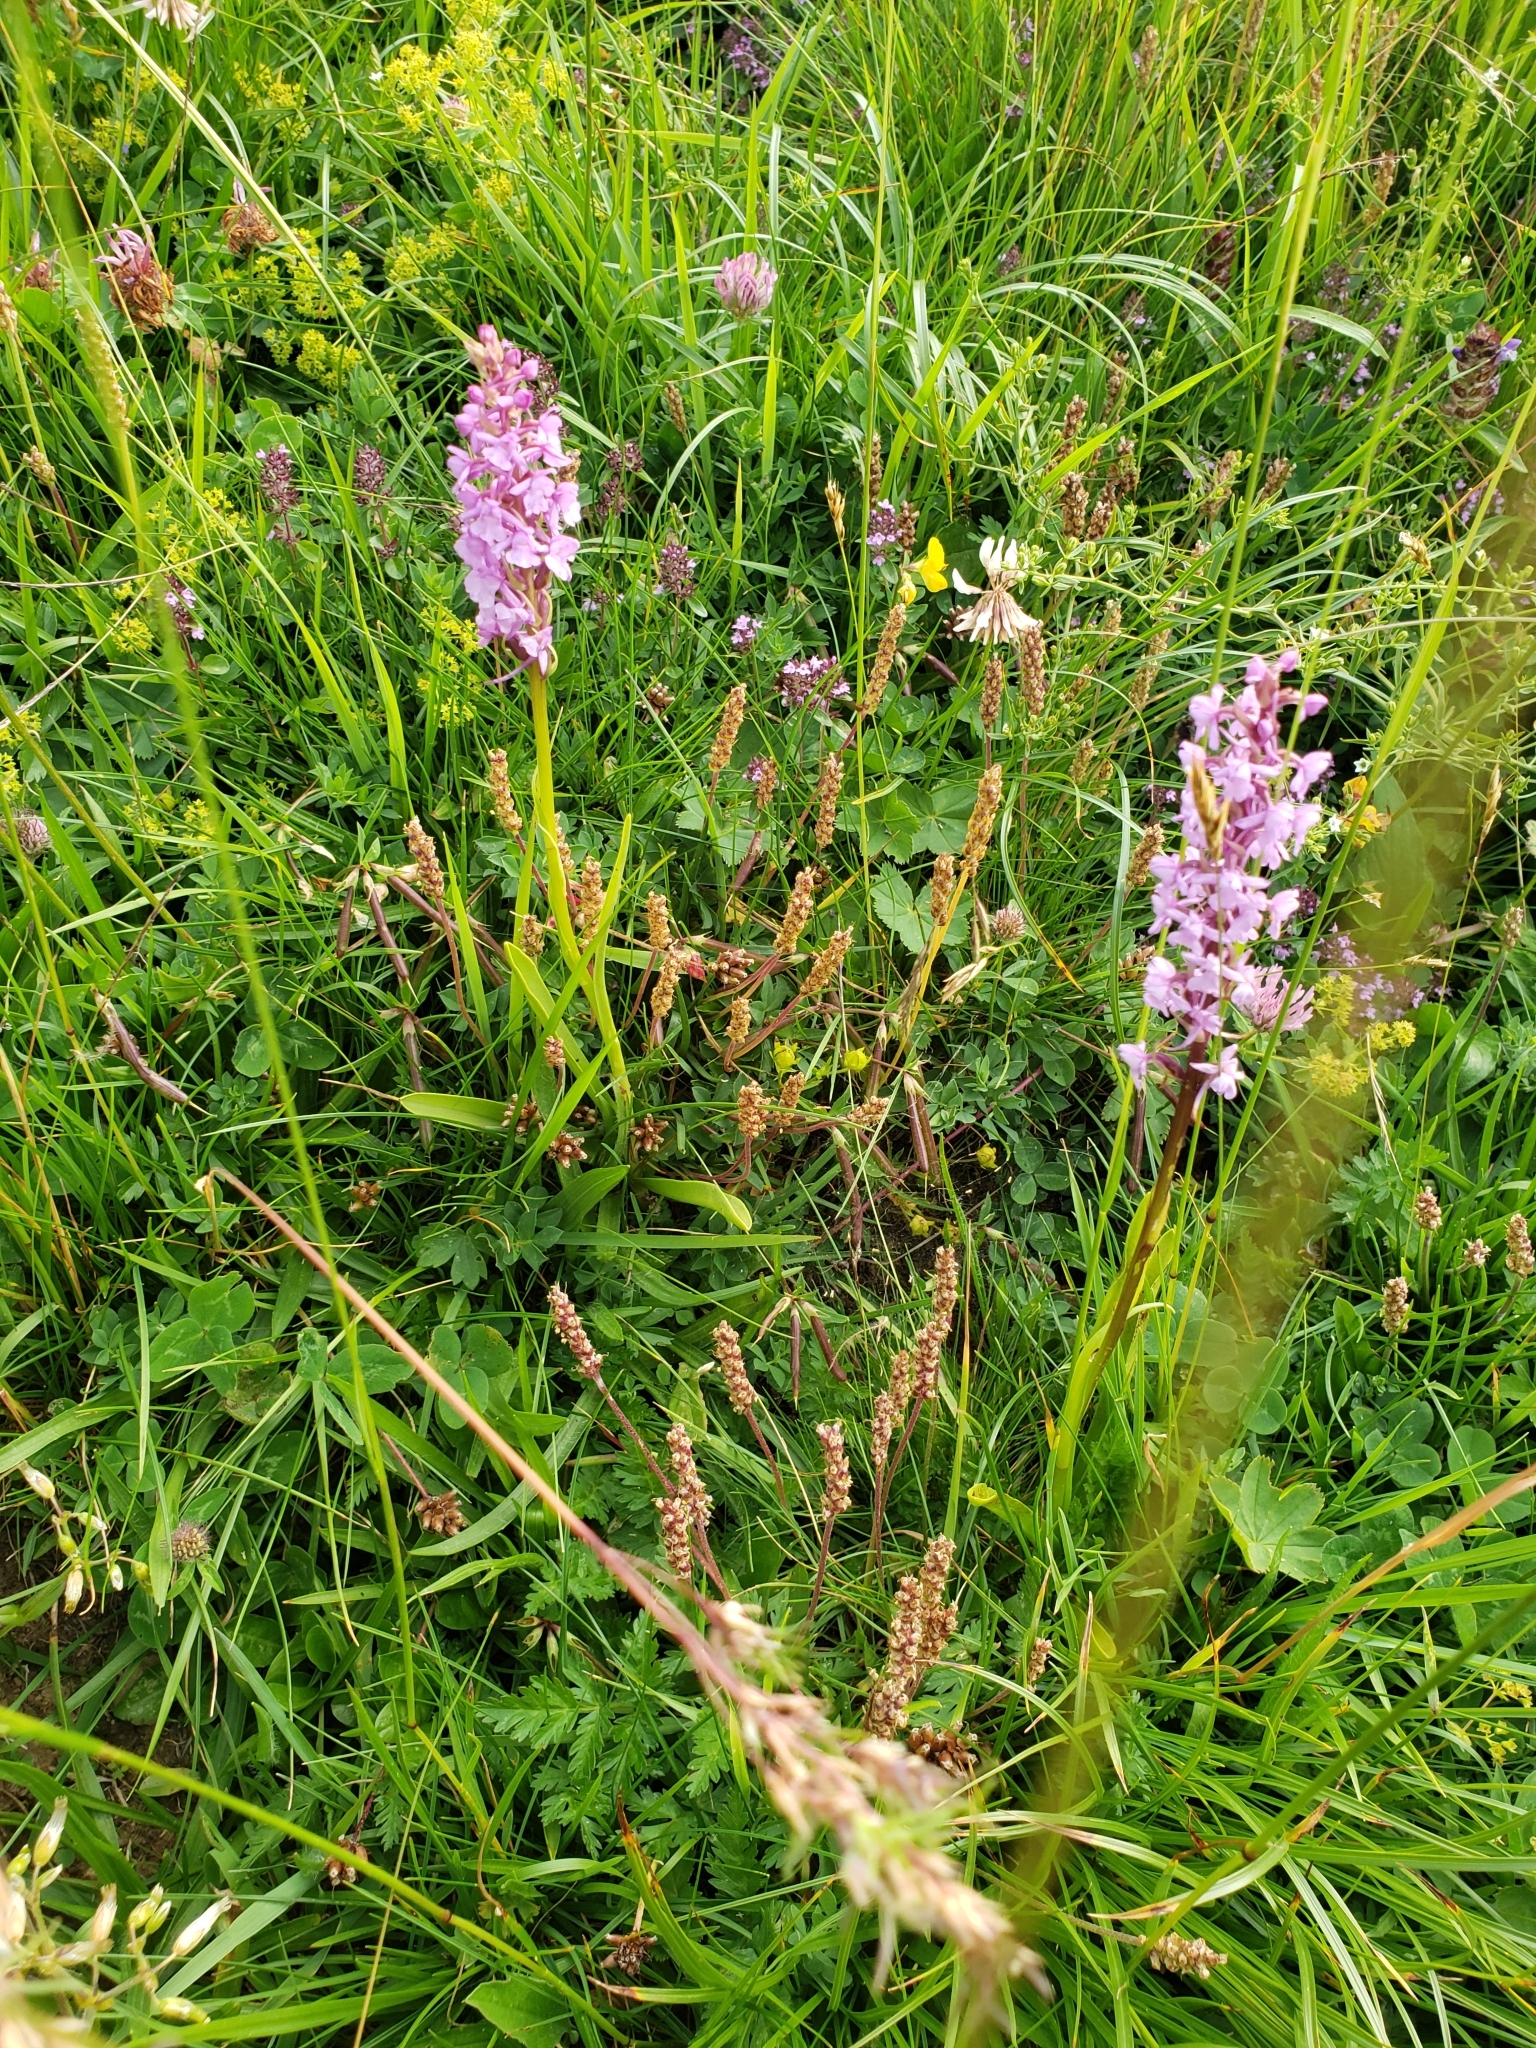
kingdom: Plantae
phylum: Tracheophyta
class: Liliopsida
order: Asparagales
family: Orchidaceae
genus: Gymnadenia
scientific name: Gymnadenia conopsea
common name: Fragrant orchid
